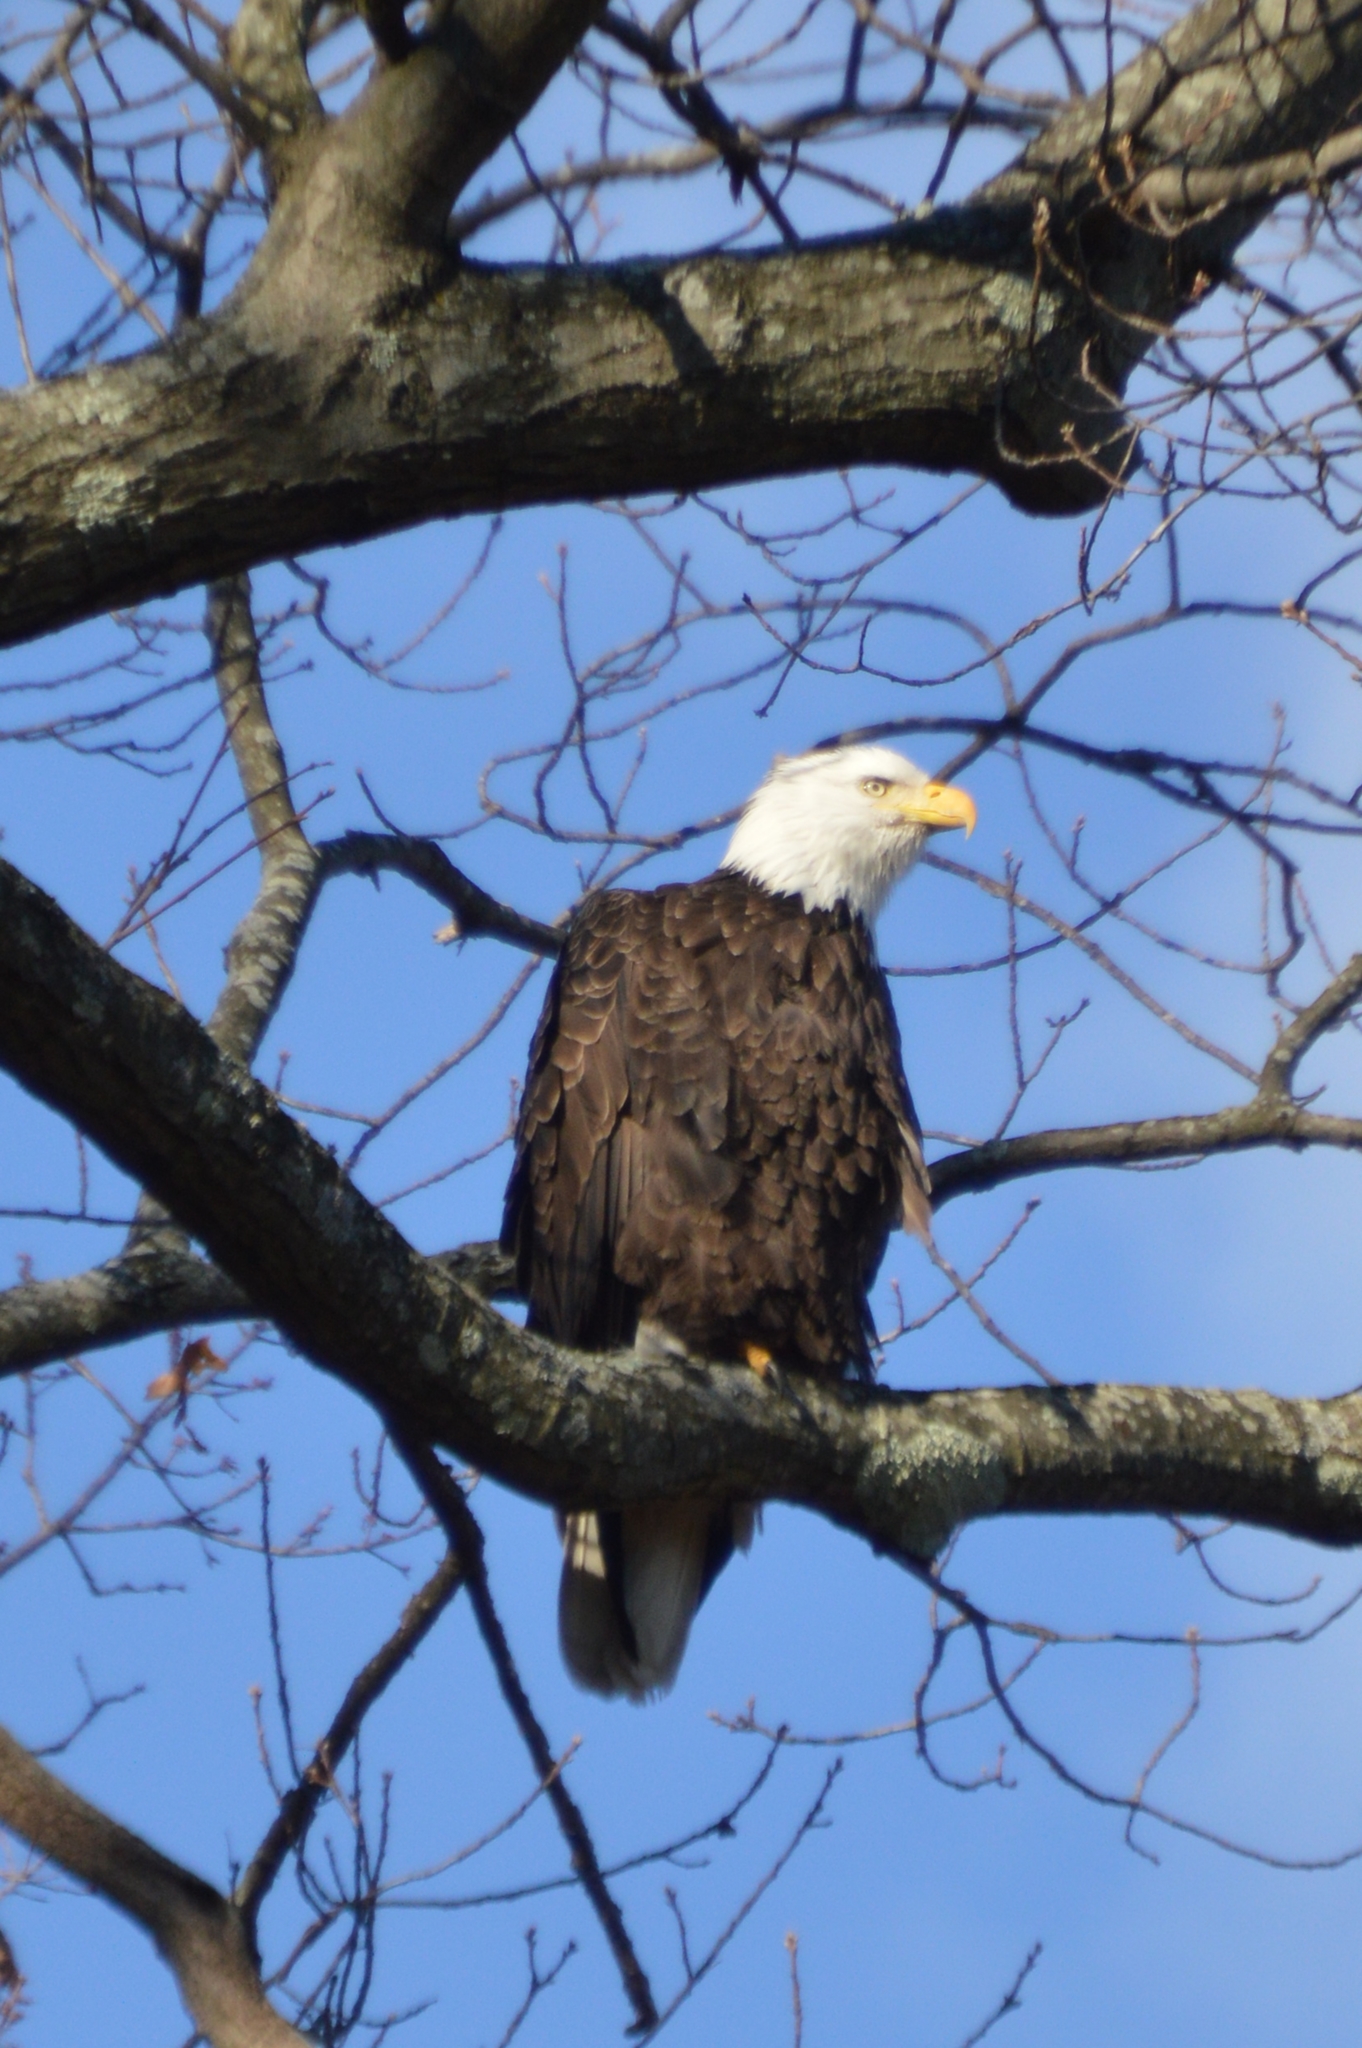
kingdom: Animalia
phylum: Chordata
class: Aves
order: Accipitriformes
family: Accipitridae
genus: Haliaeetus
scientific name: Haliaeetus leucocephalus
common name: Bald eagle
